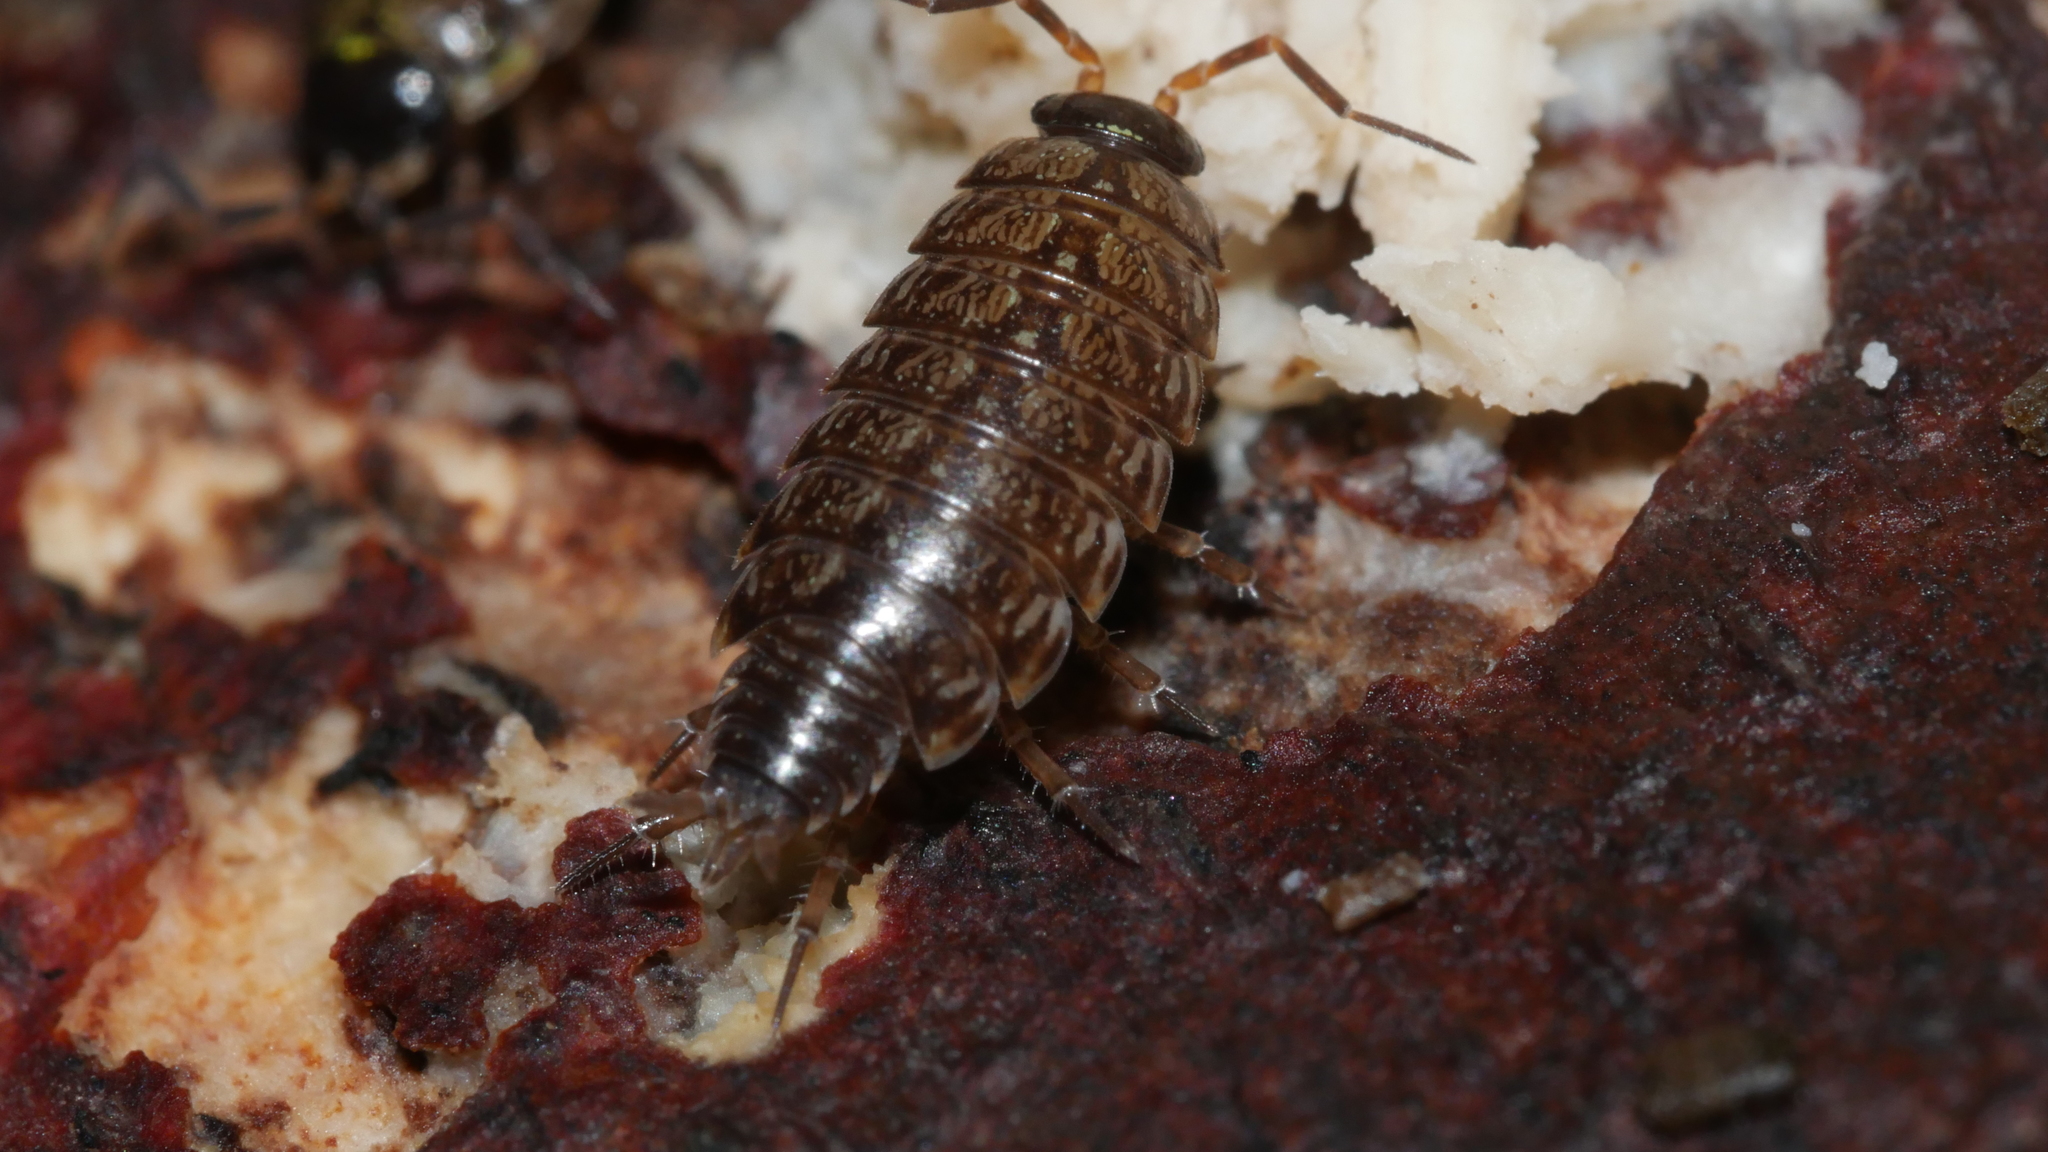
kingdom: Animalia
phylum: Arthropoda
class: Malacostraca
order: Isopoda
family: Philosciidae
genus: Philoscia
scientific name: Philoscia muscorum
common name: Common striped woodlouse
